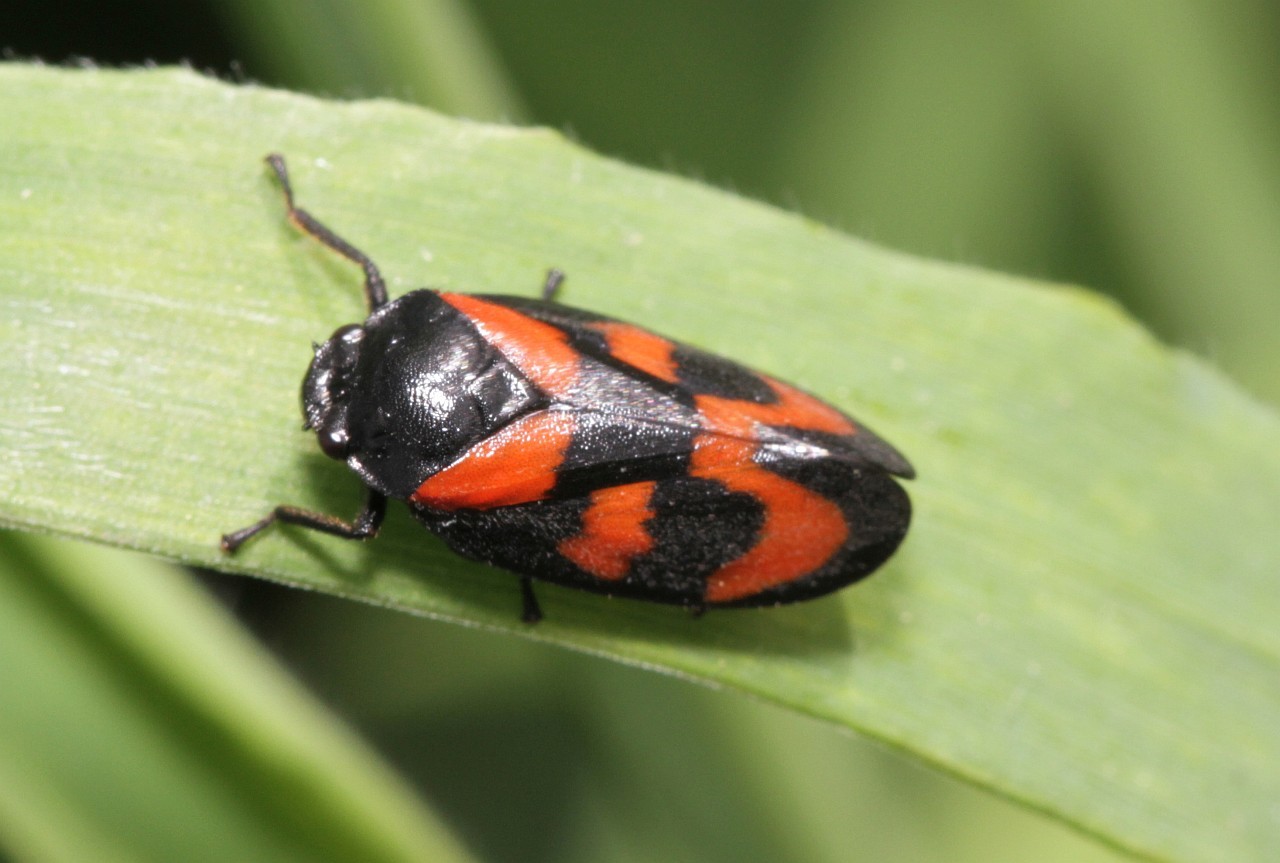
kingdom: Animalia
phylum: Arthropoda
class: Insecta
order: Hemiptera
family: Cercopidae
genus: Cercopis
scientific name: Cercopis vulnerata
